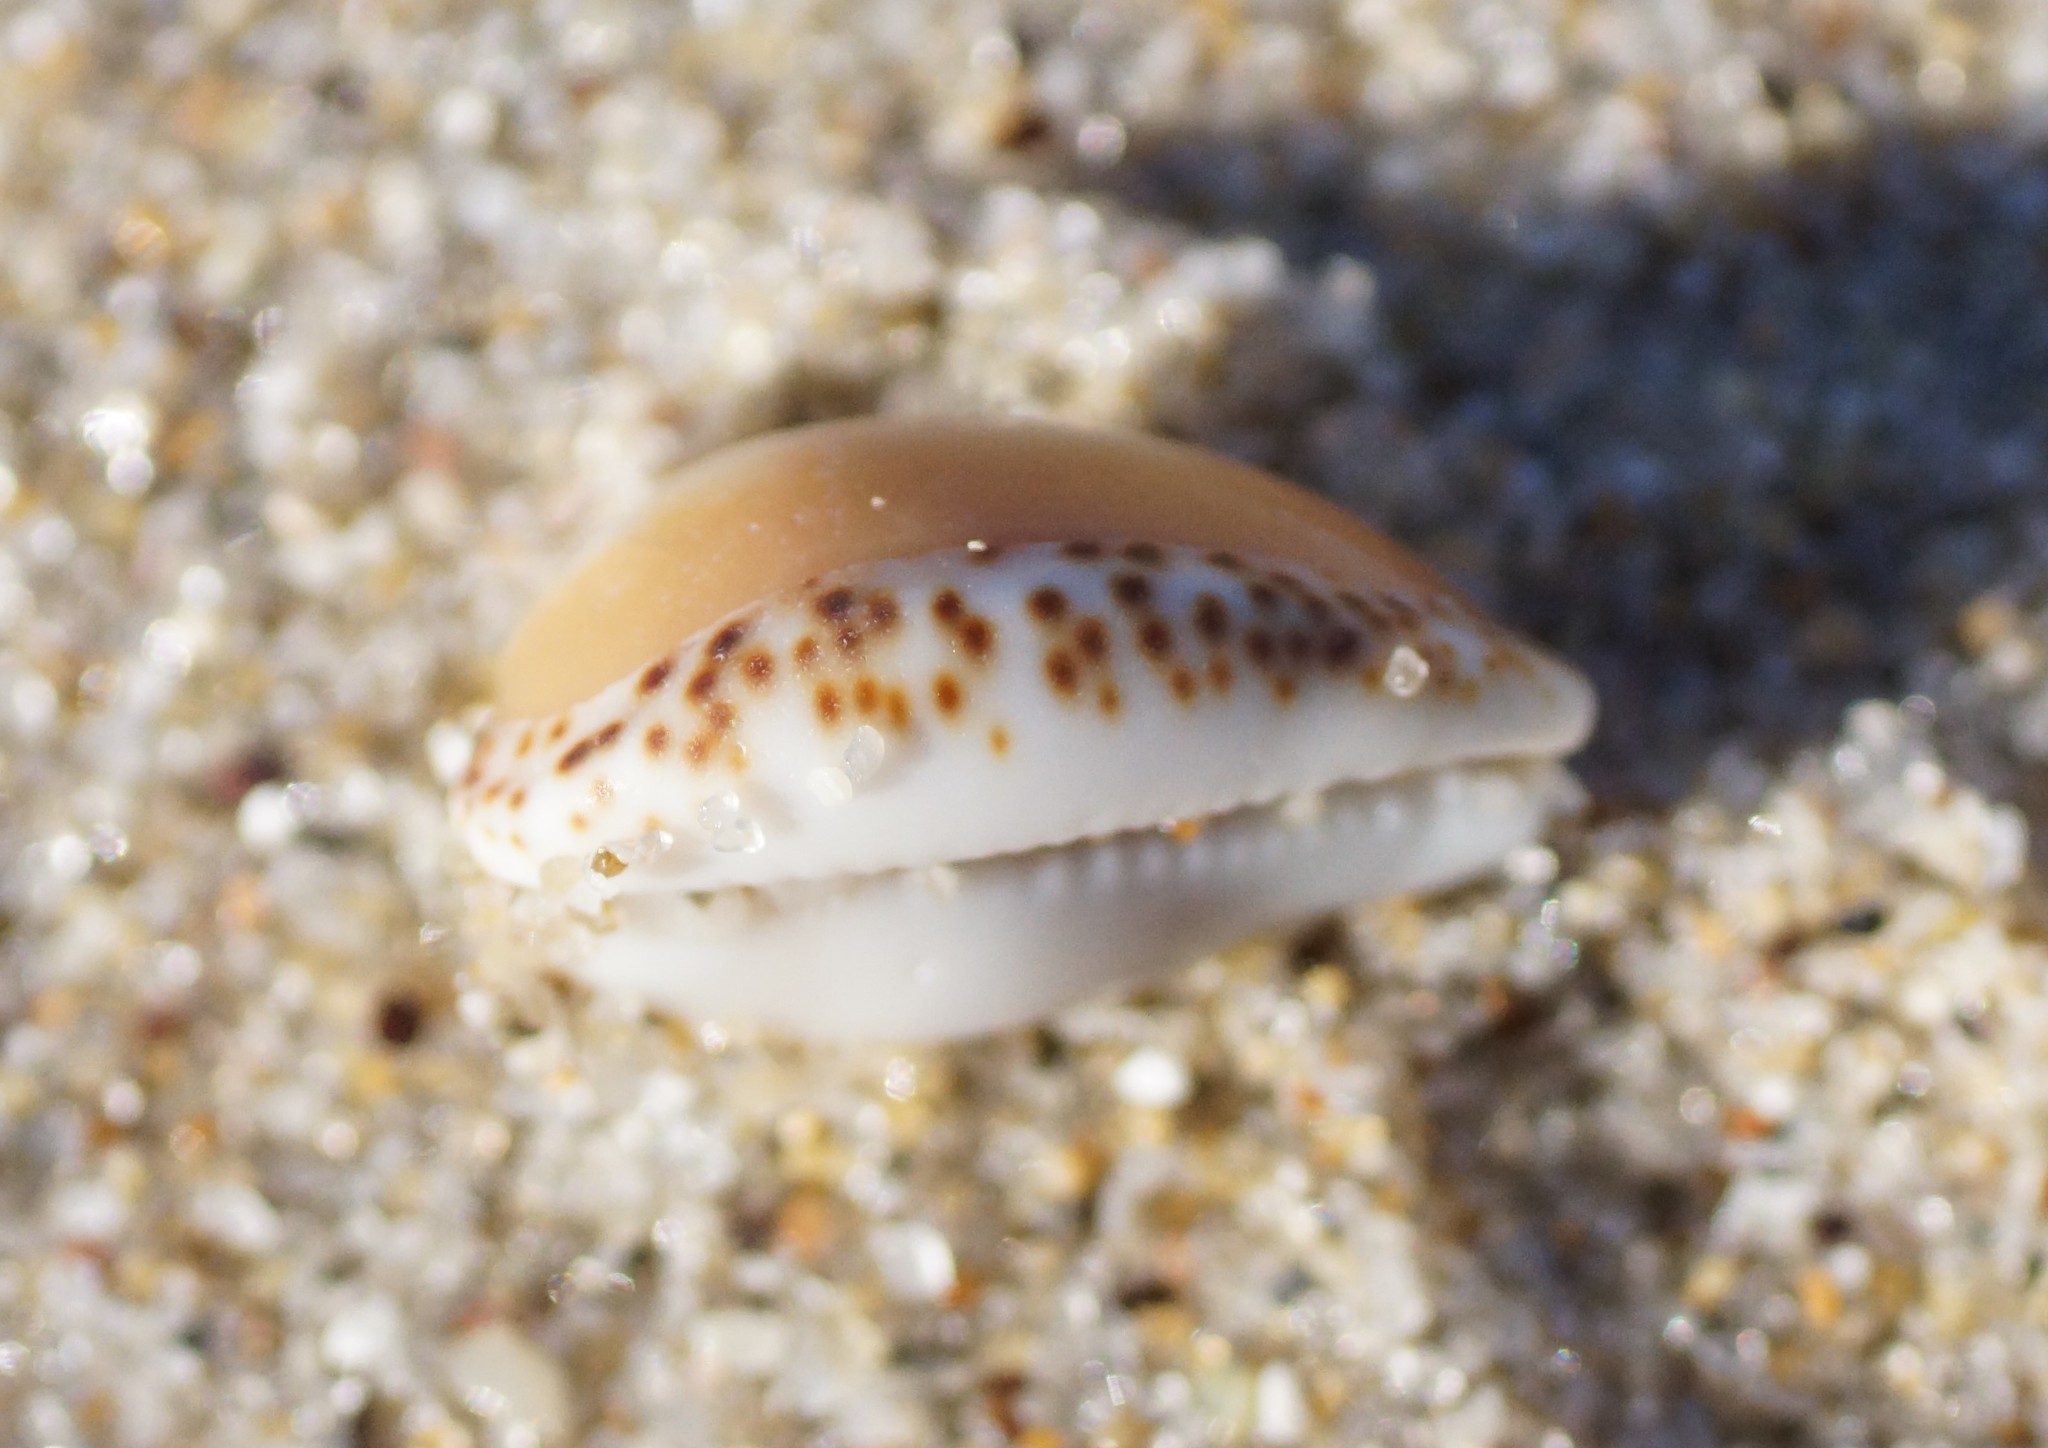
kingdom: Animalia
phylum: Mollusca
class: Gastropoda
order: Littorinimorpha
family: Cypraeidae
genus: Notocypraea
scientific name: Notocypraea angustata
